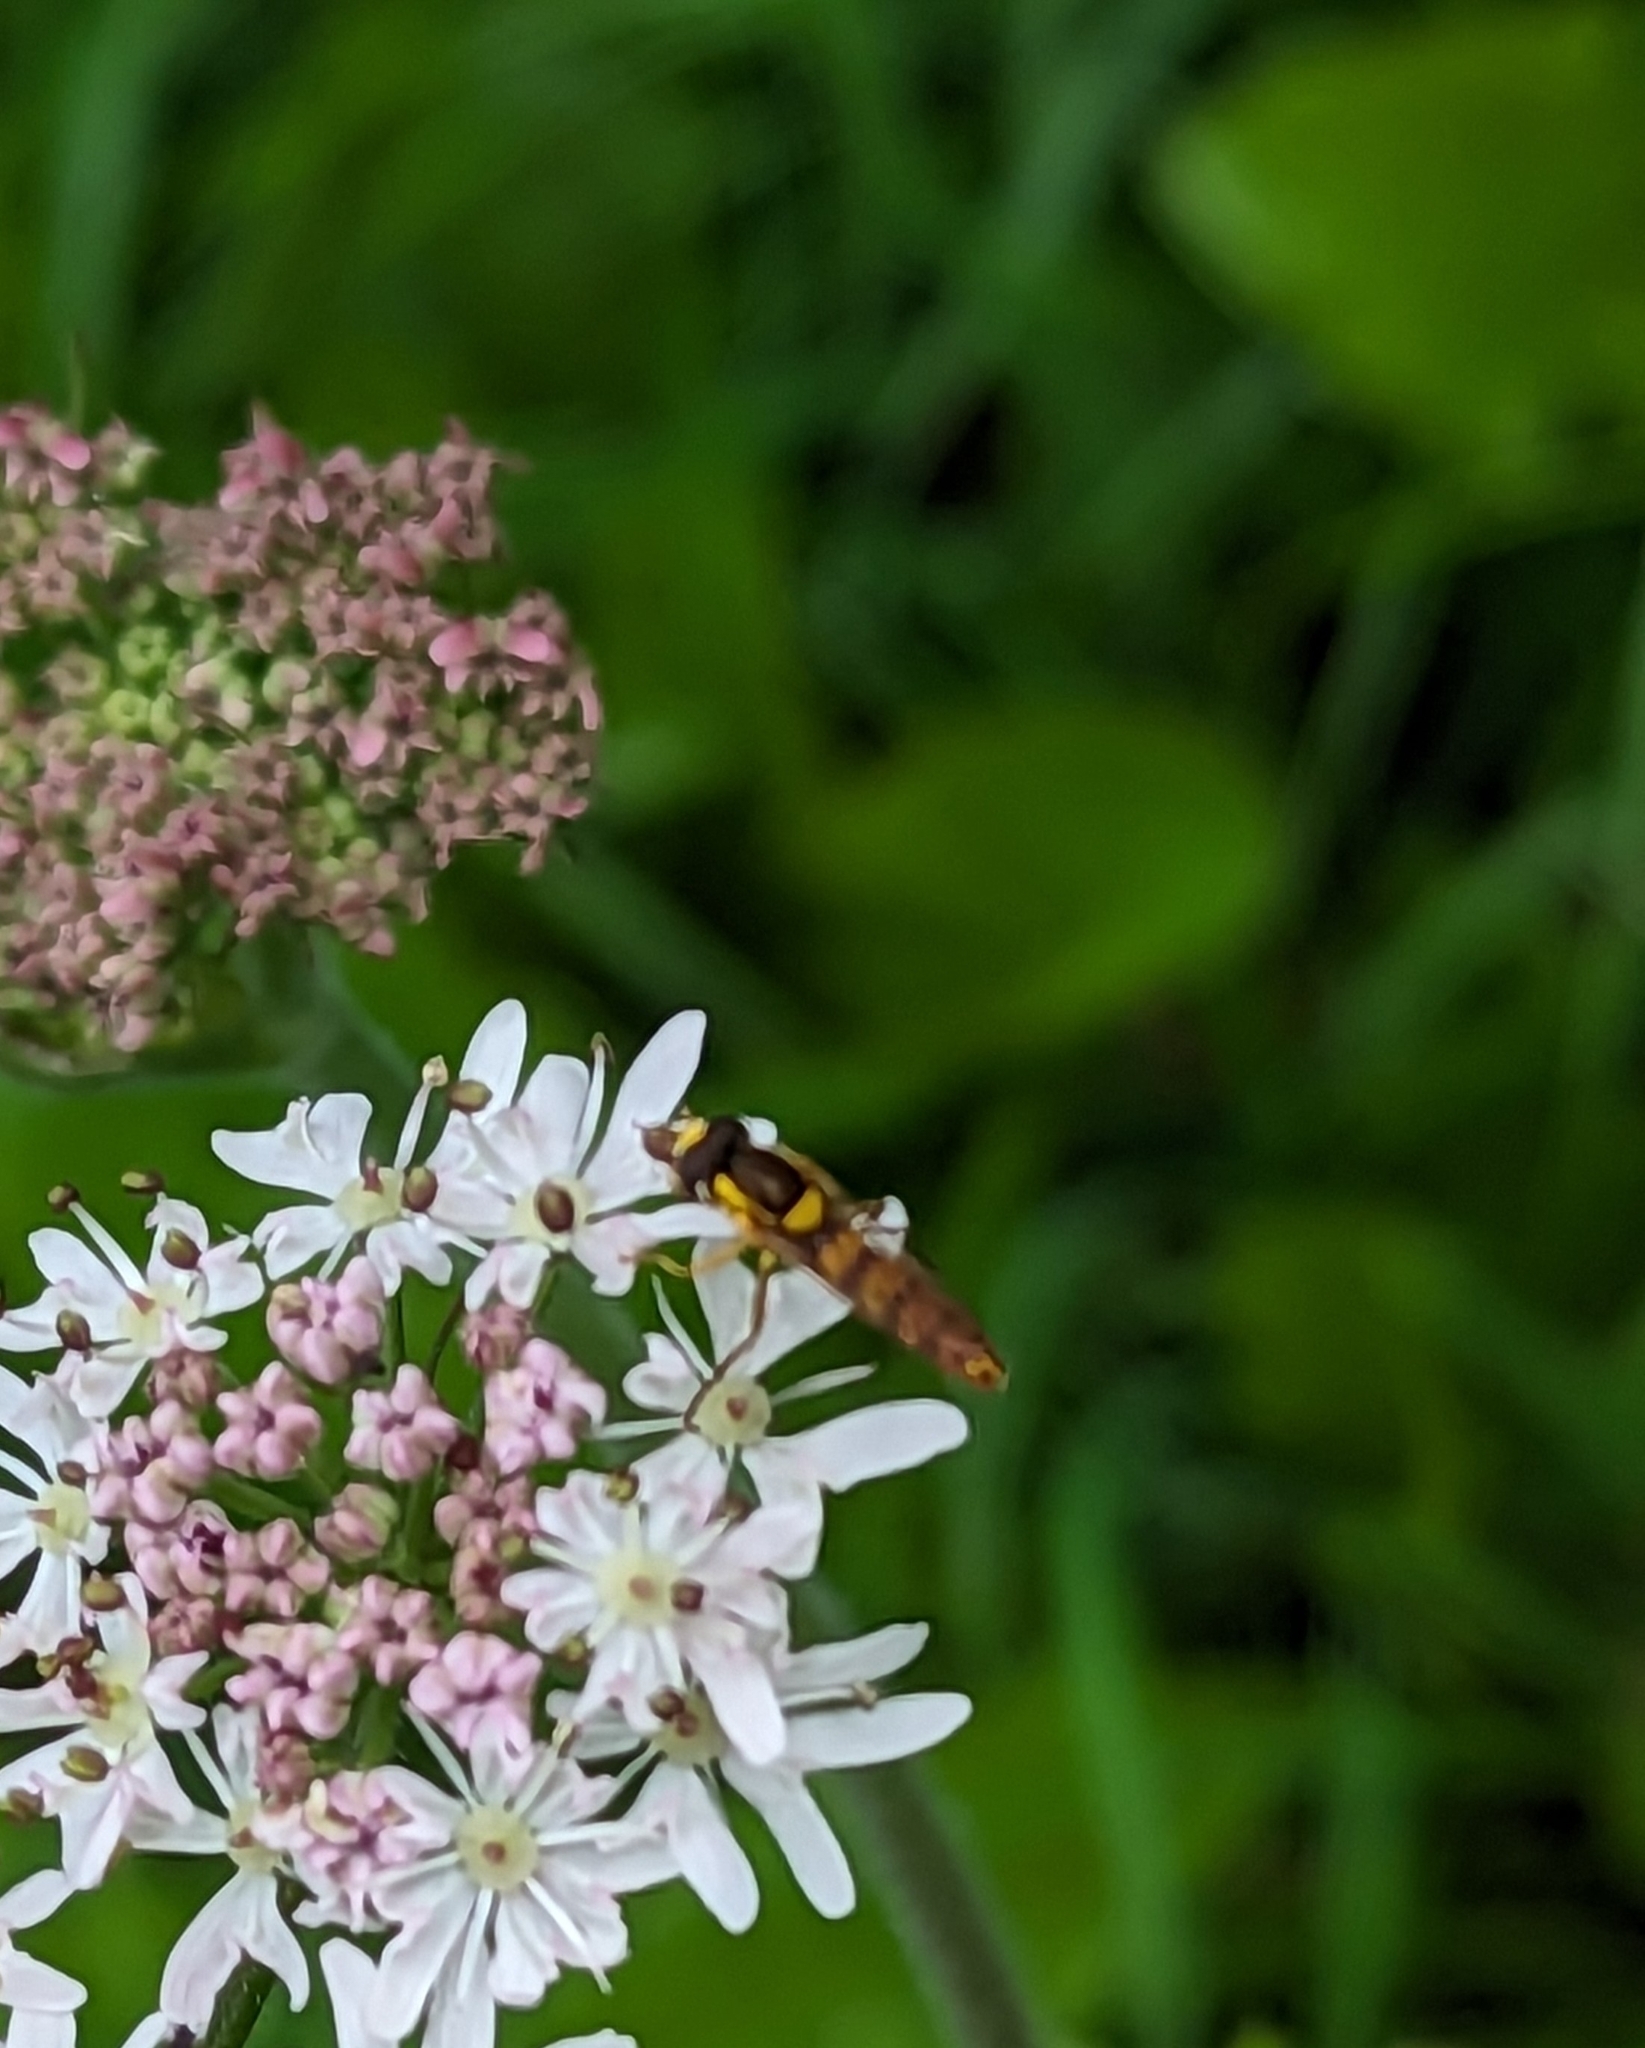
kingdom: Animalia
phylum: Arthropoda
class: Insecta
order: Diptera
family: Syrphidae
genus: Sphaerophoria
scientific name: Sphaerophoria scripta
